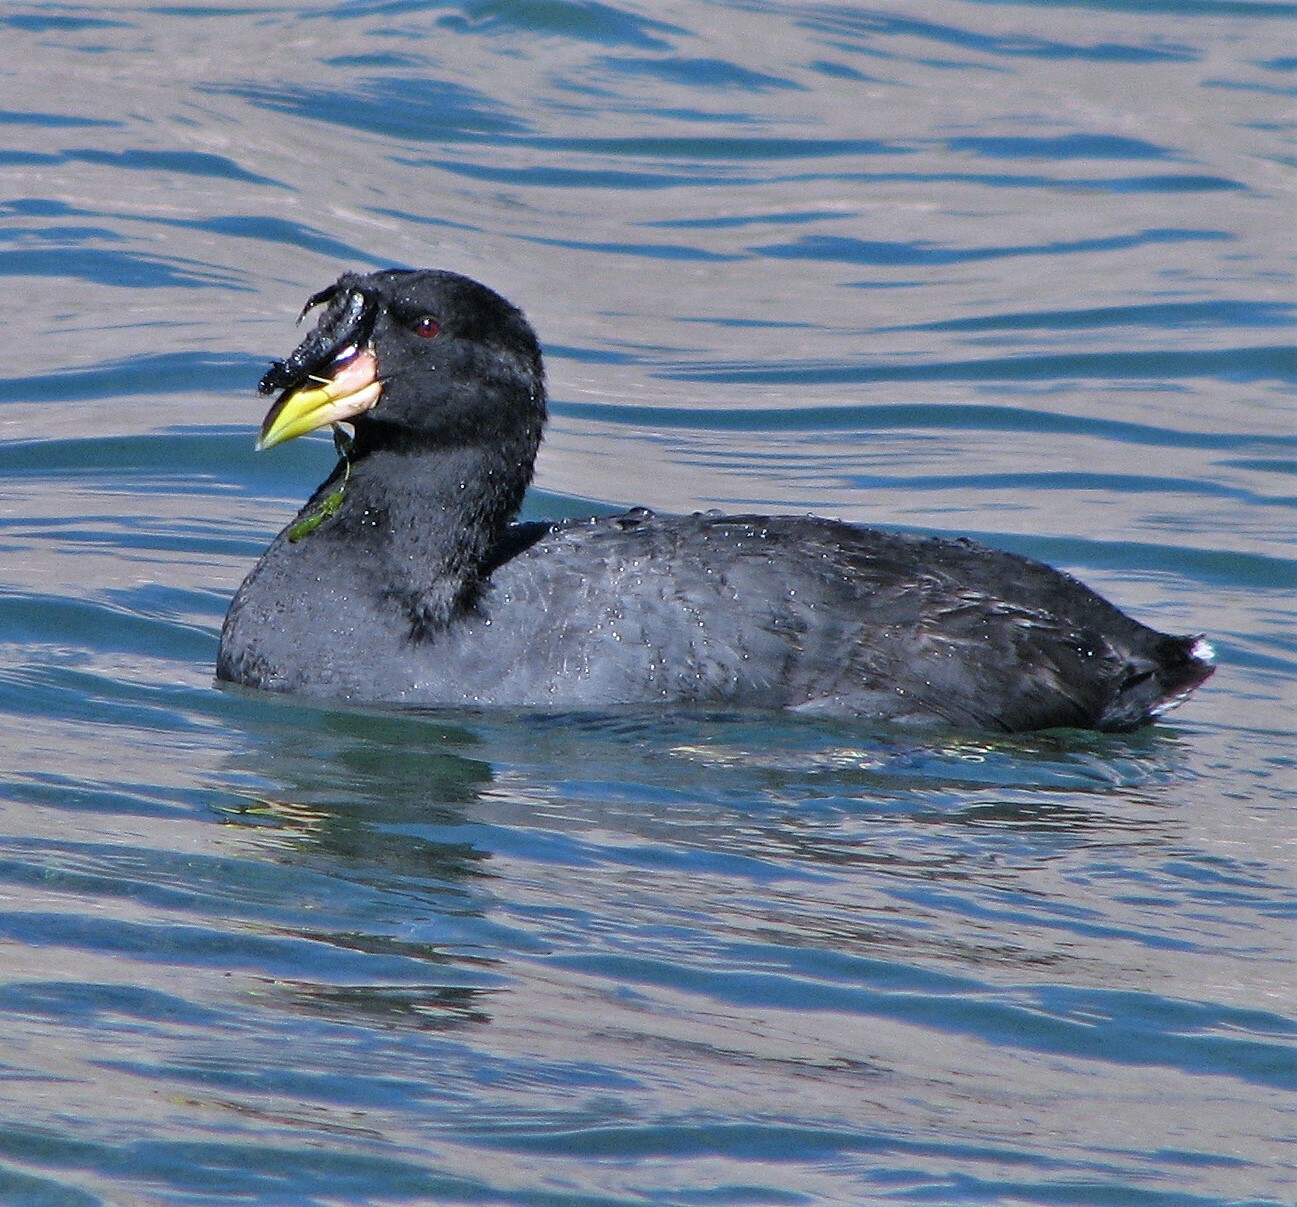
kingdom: Animalia
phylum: Chordata
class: Aves
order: Gruiformes
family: Rallidae
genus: Fulica
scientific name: Fulica cornuta
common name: Horned coot
